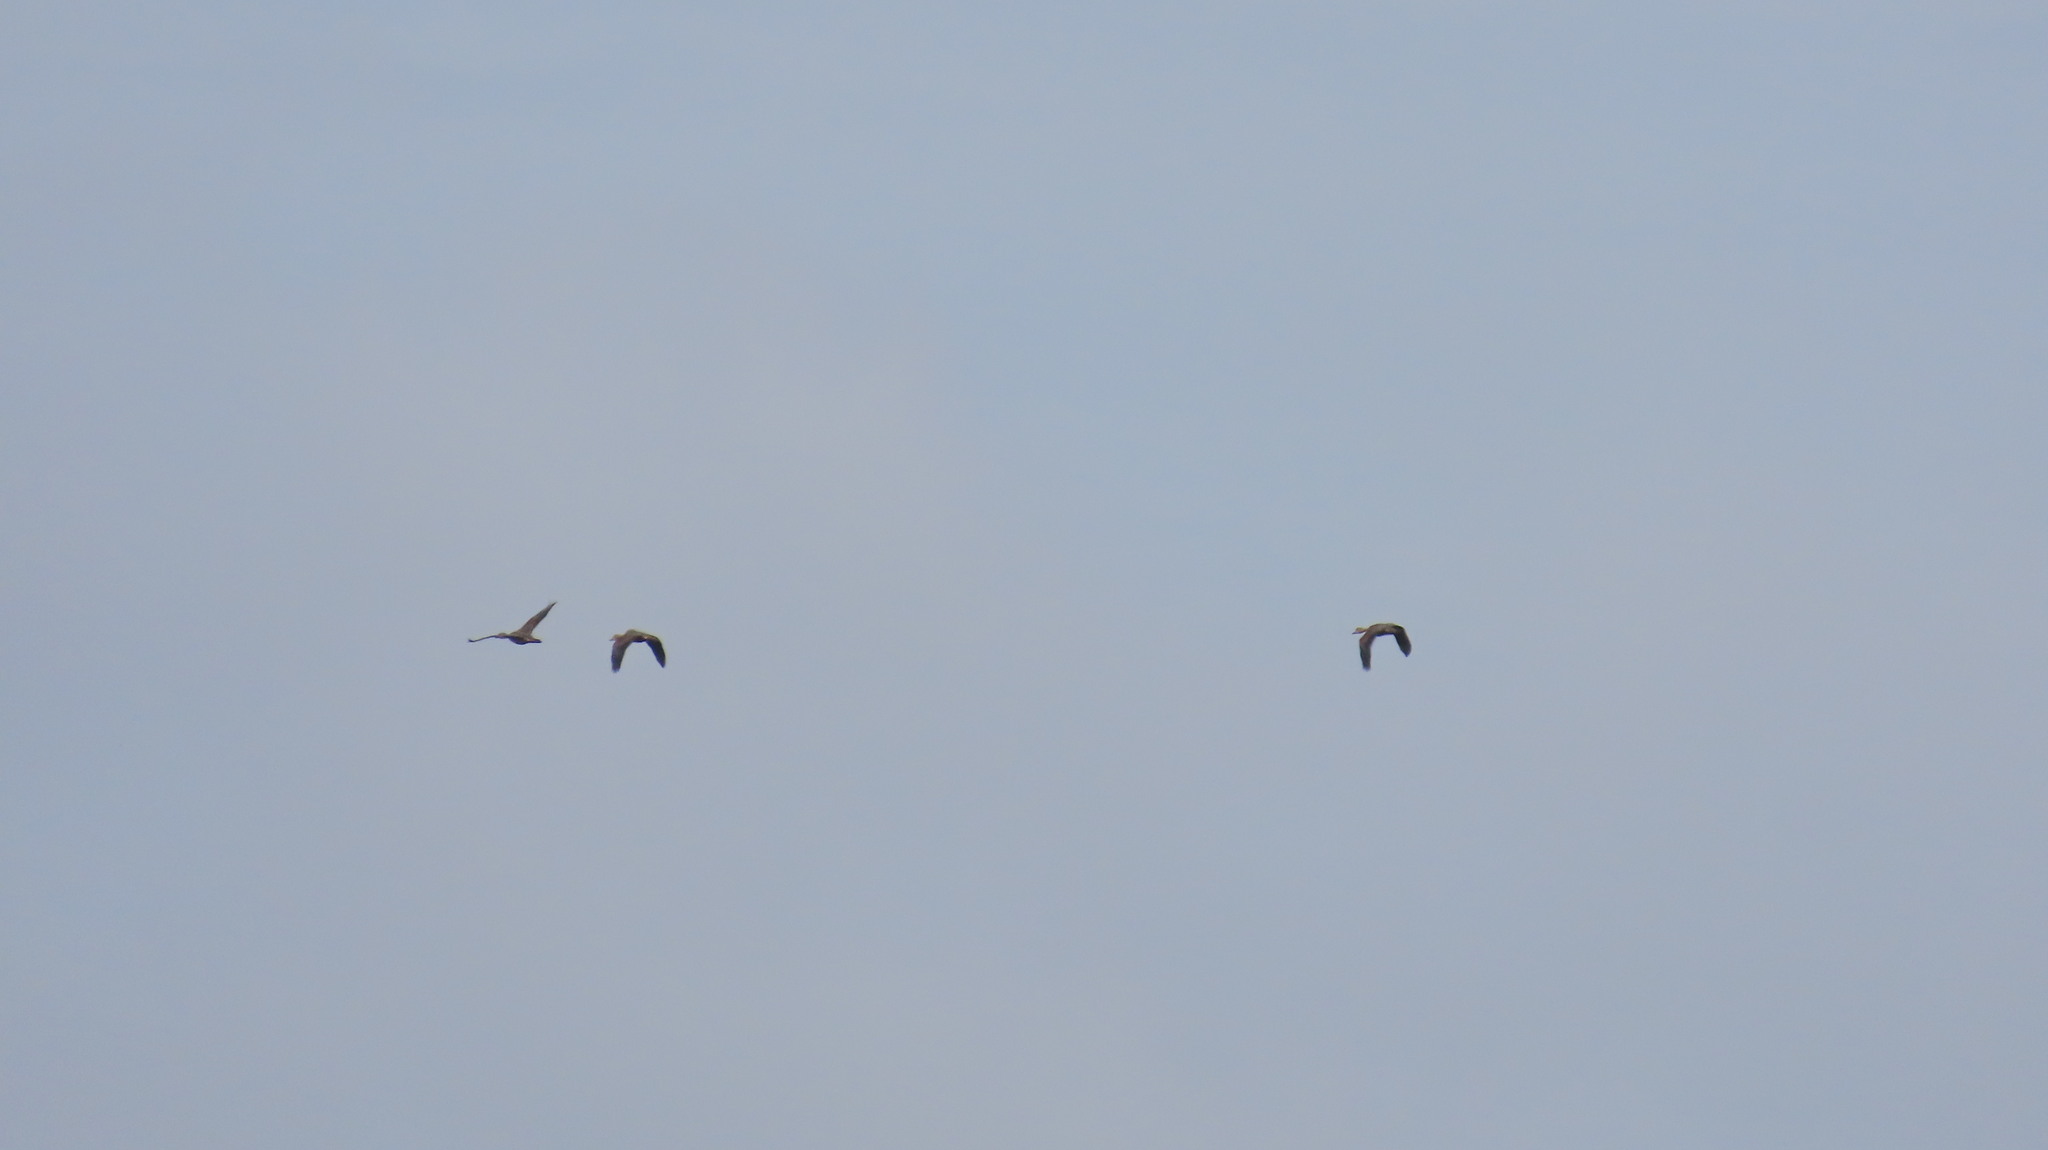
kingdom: Animalia
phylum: Chordata
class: Aves
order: Anseriformes
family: Anatidae
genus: Dendrocygna
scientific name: Dendrocygna javanica
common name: Lesser whistling-duck
